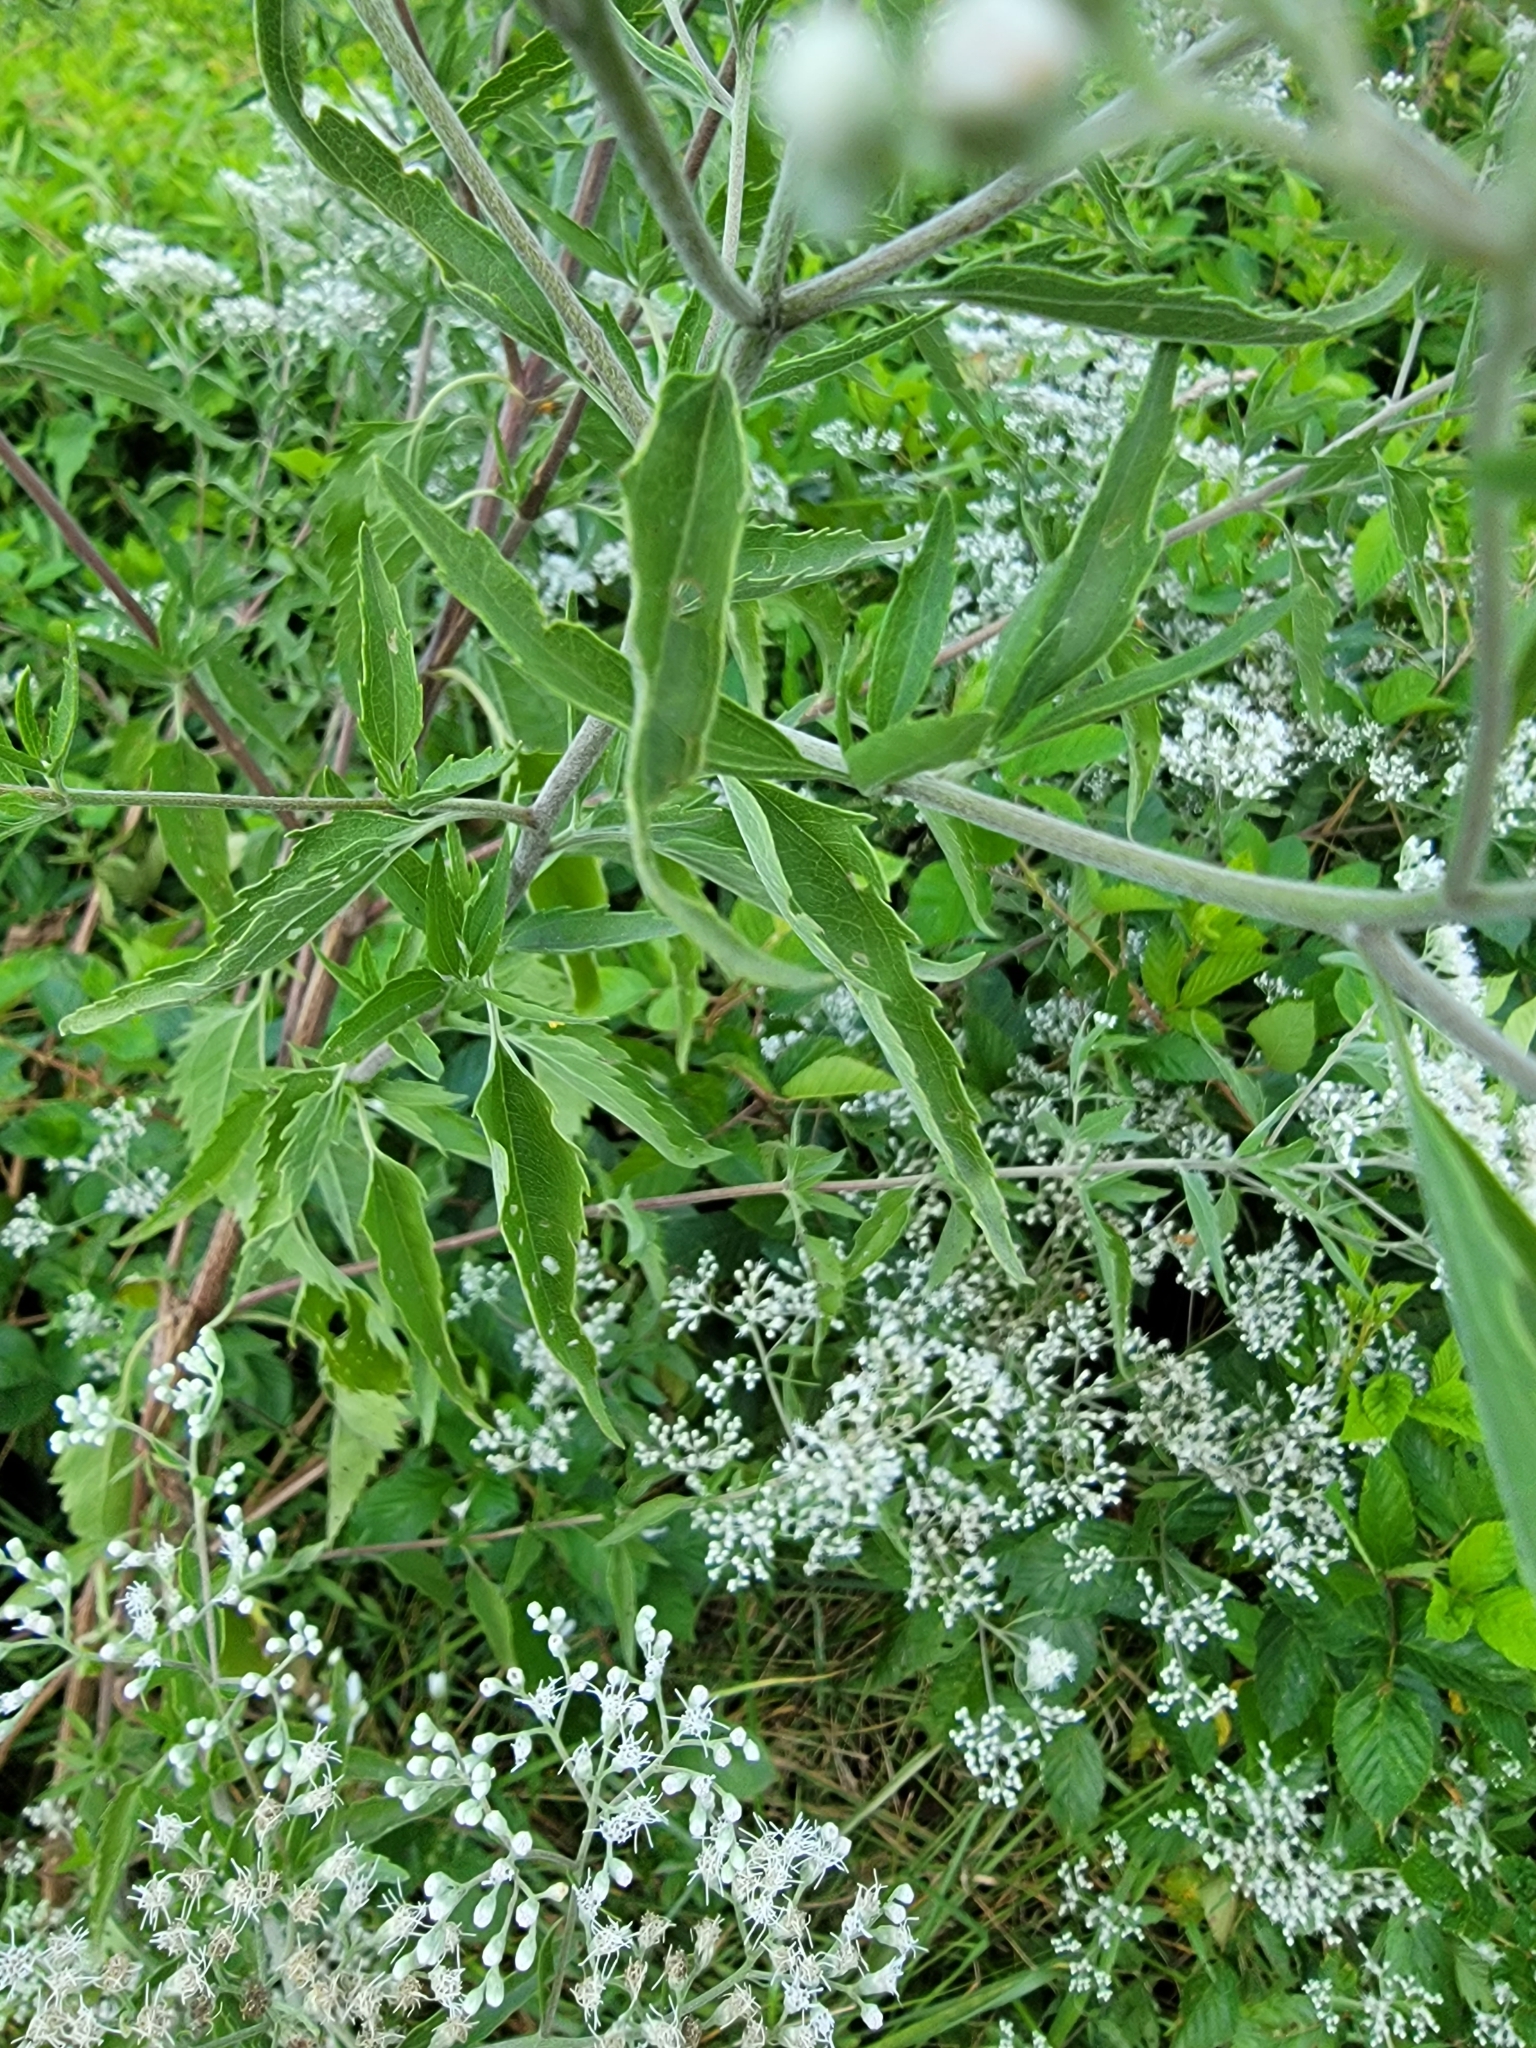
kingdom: Plantae
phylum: Tracheophyta
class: Magnoliopsida
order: Asterales
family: Asteraceae
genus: Eupatorium
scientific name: Eupatorium serotinum
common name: Late boneset
